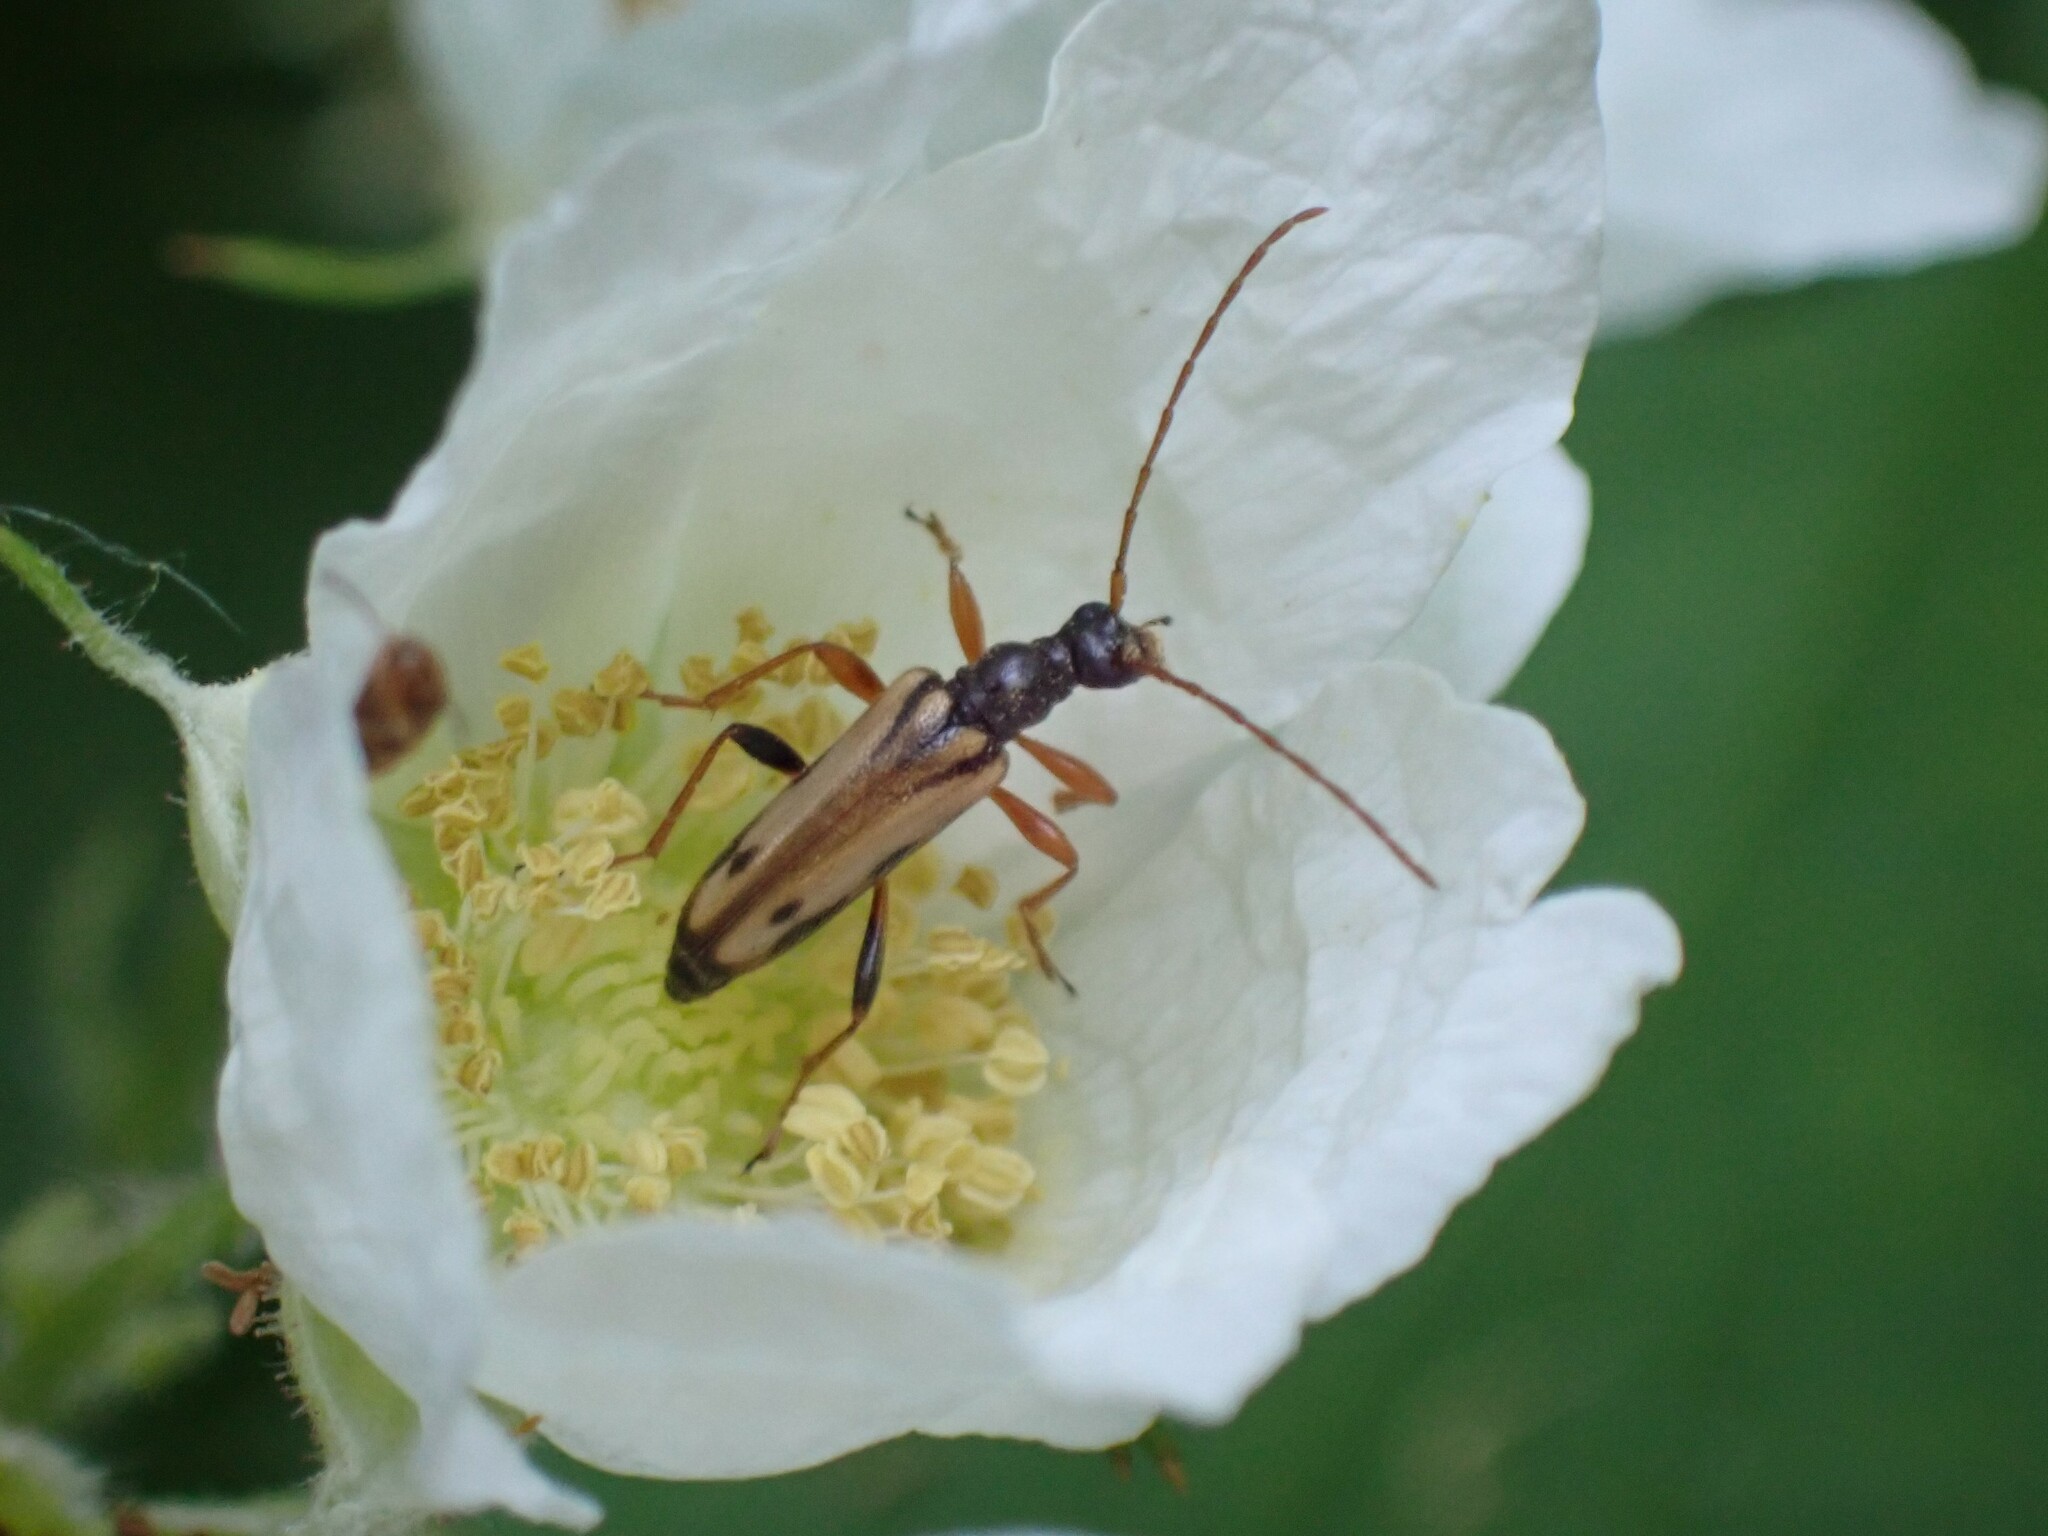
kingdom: Animalia
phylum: Arthropoda
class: Insecta
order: Coleoptera
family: Cerambycidae
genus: Pidonia
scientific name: Pidonia scripta
